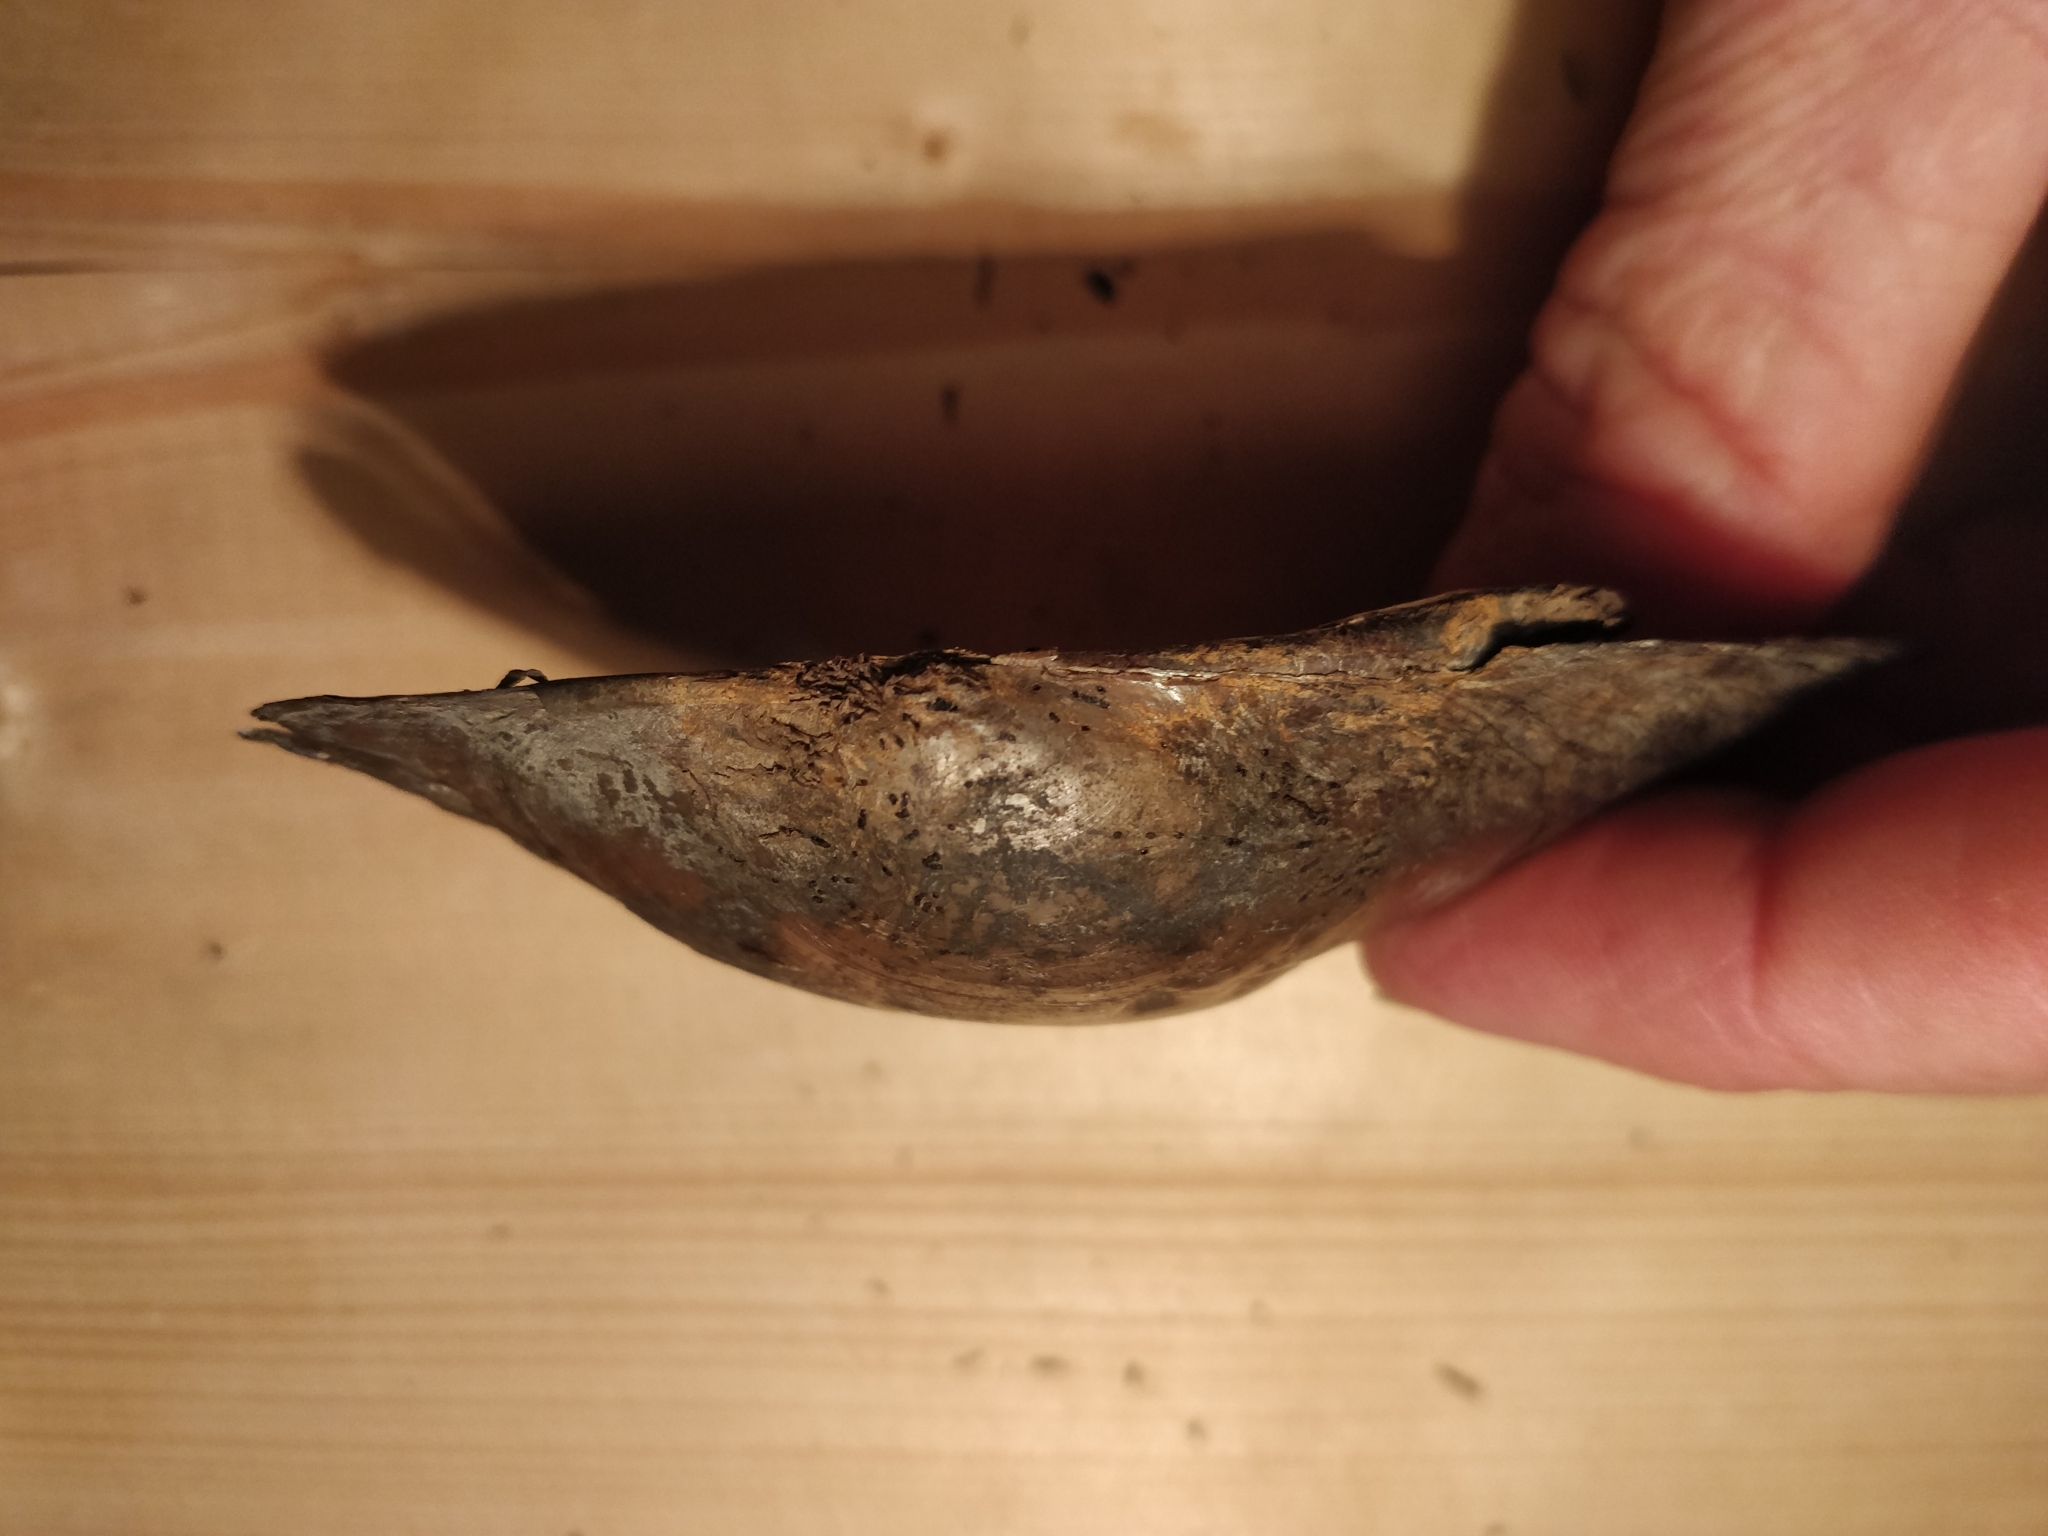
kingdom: Animalia
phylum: Mollusca
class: Bivalvia
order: Unionida
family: Unionidae
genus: Pyganodon
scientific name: Pyganodon grandis
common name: Giant floater
